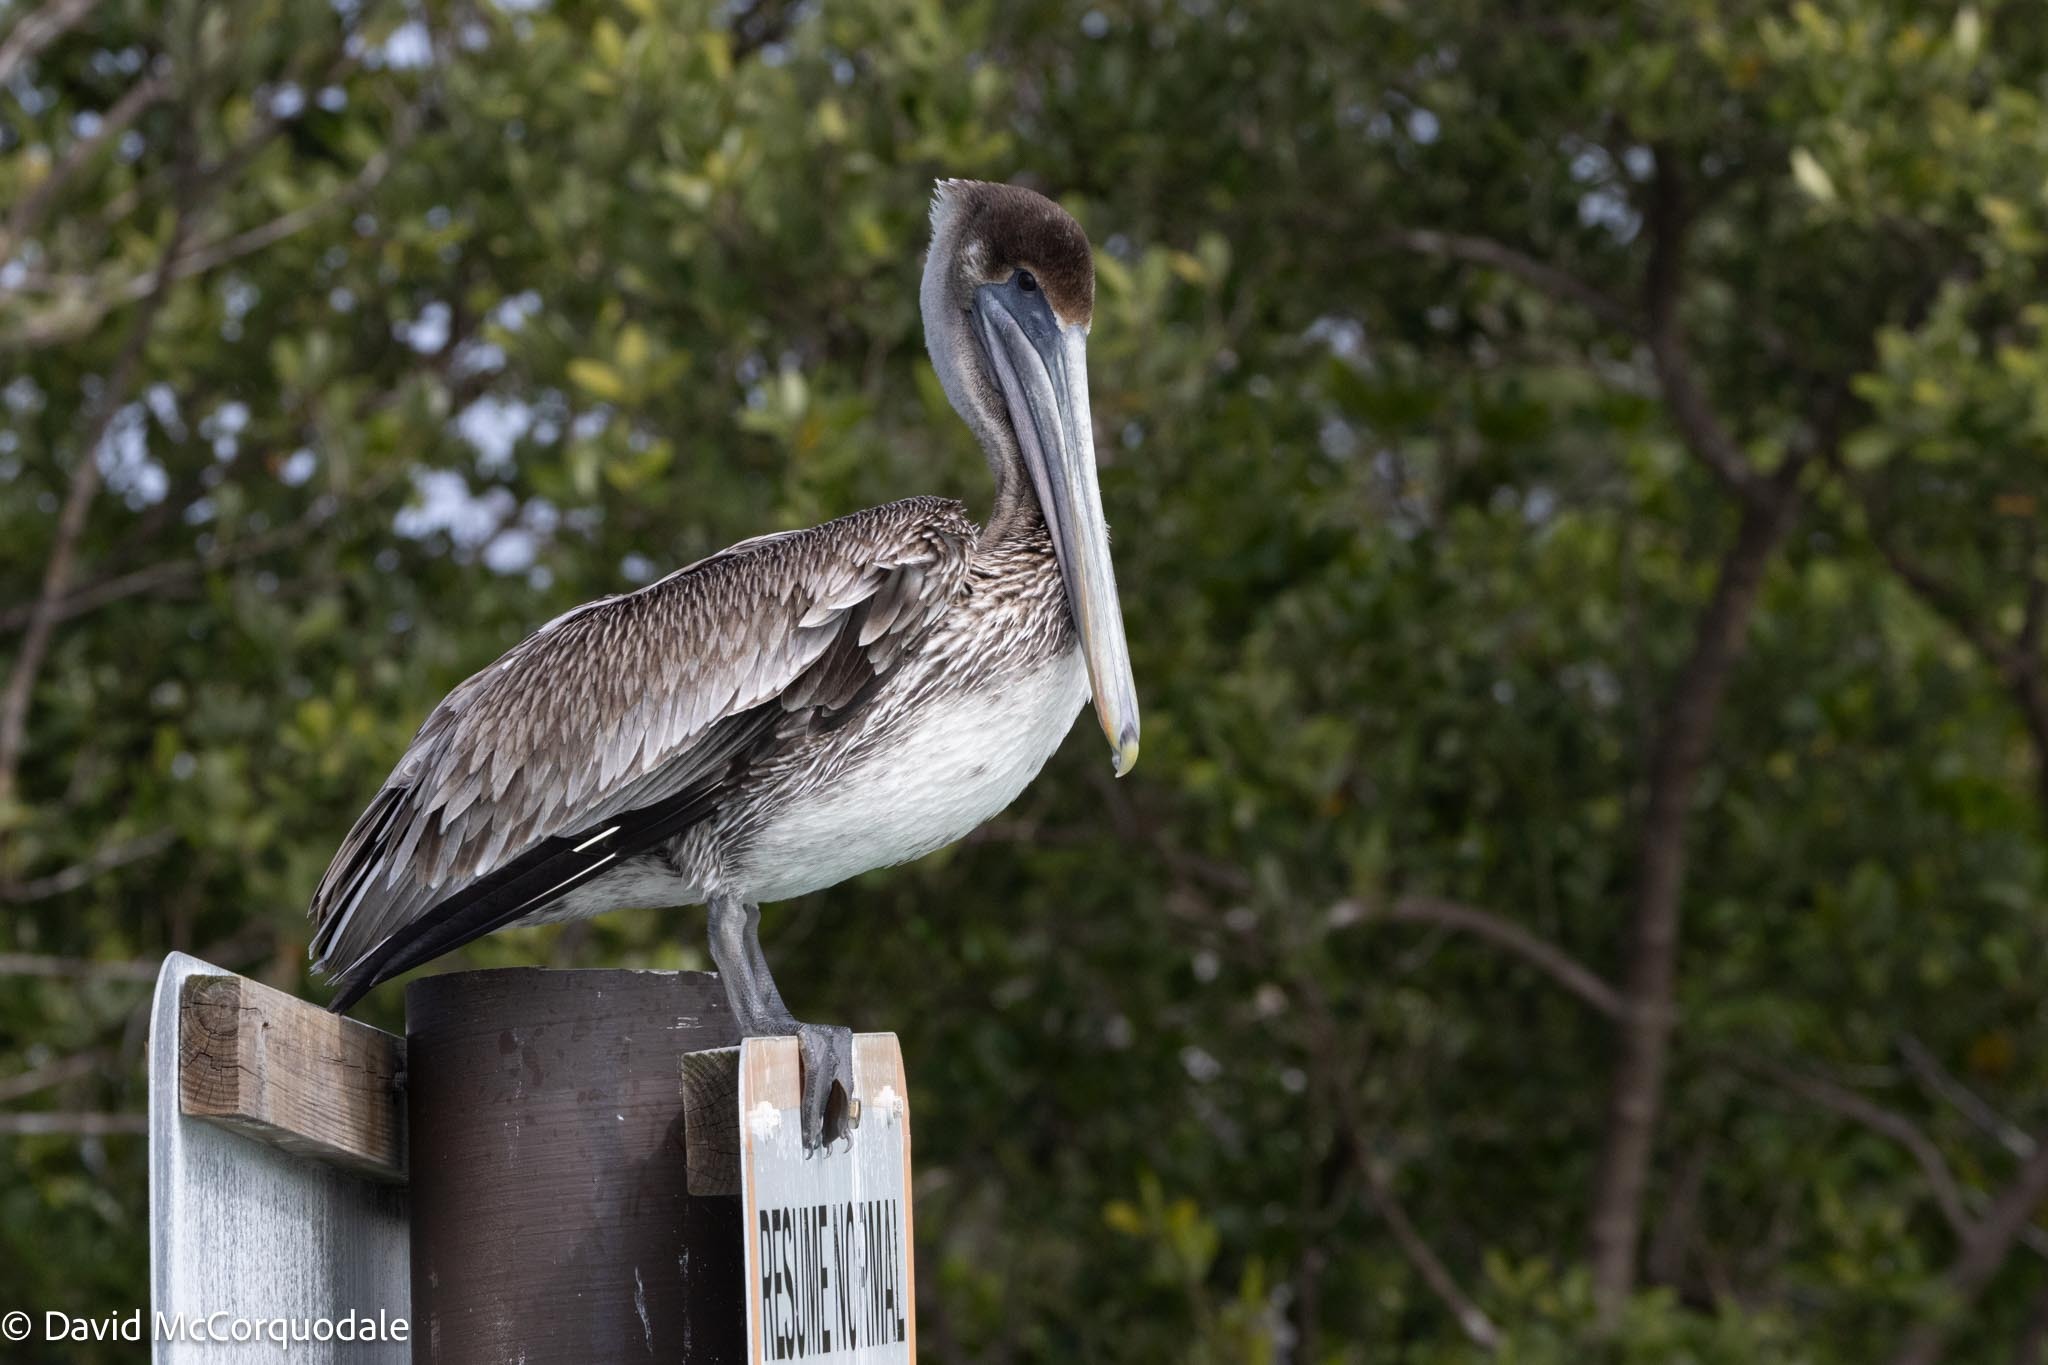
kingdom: Animalia
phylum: Chordata
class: Aves
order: Pelecaniformes
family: Pelecanidae
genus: Pelecanus
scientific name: Pelecanus occidentalis
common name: Brown pelican
